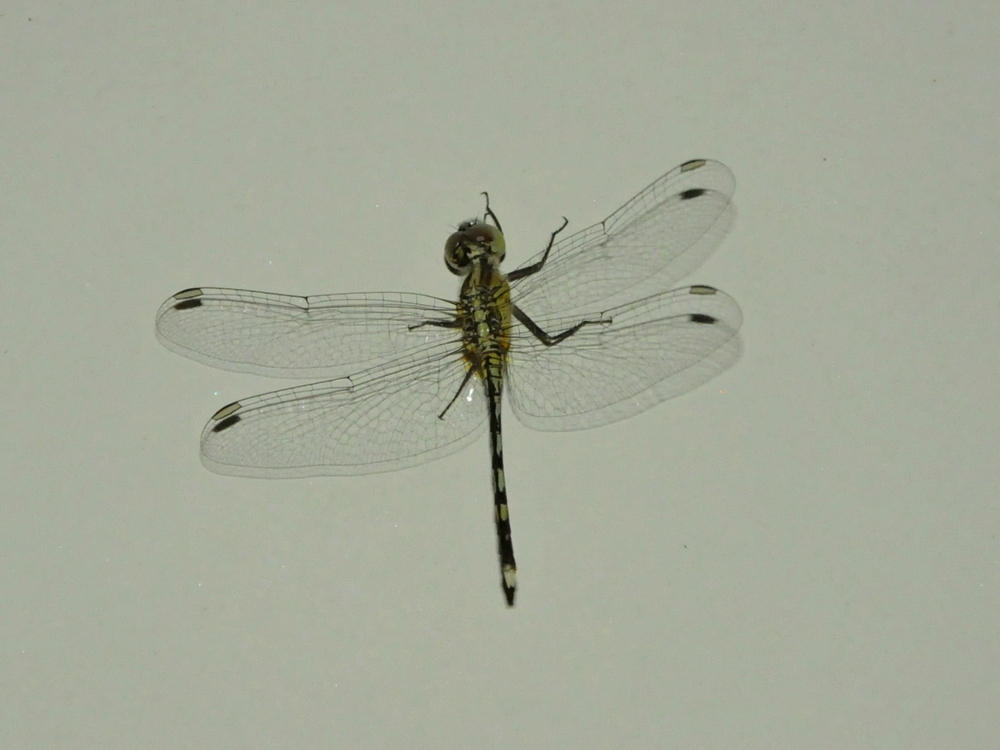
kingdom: Animalia
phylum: Arthropoda
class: Insecta
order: Odonata
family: Libellulidae
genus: Diplacodes
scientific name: Diplacodes trivialis
